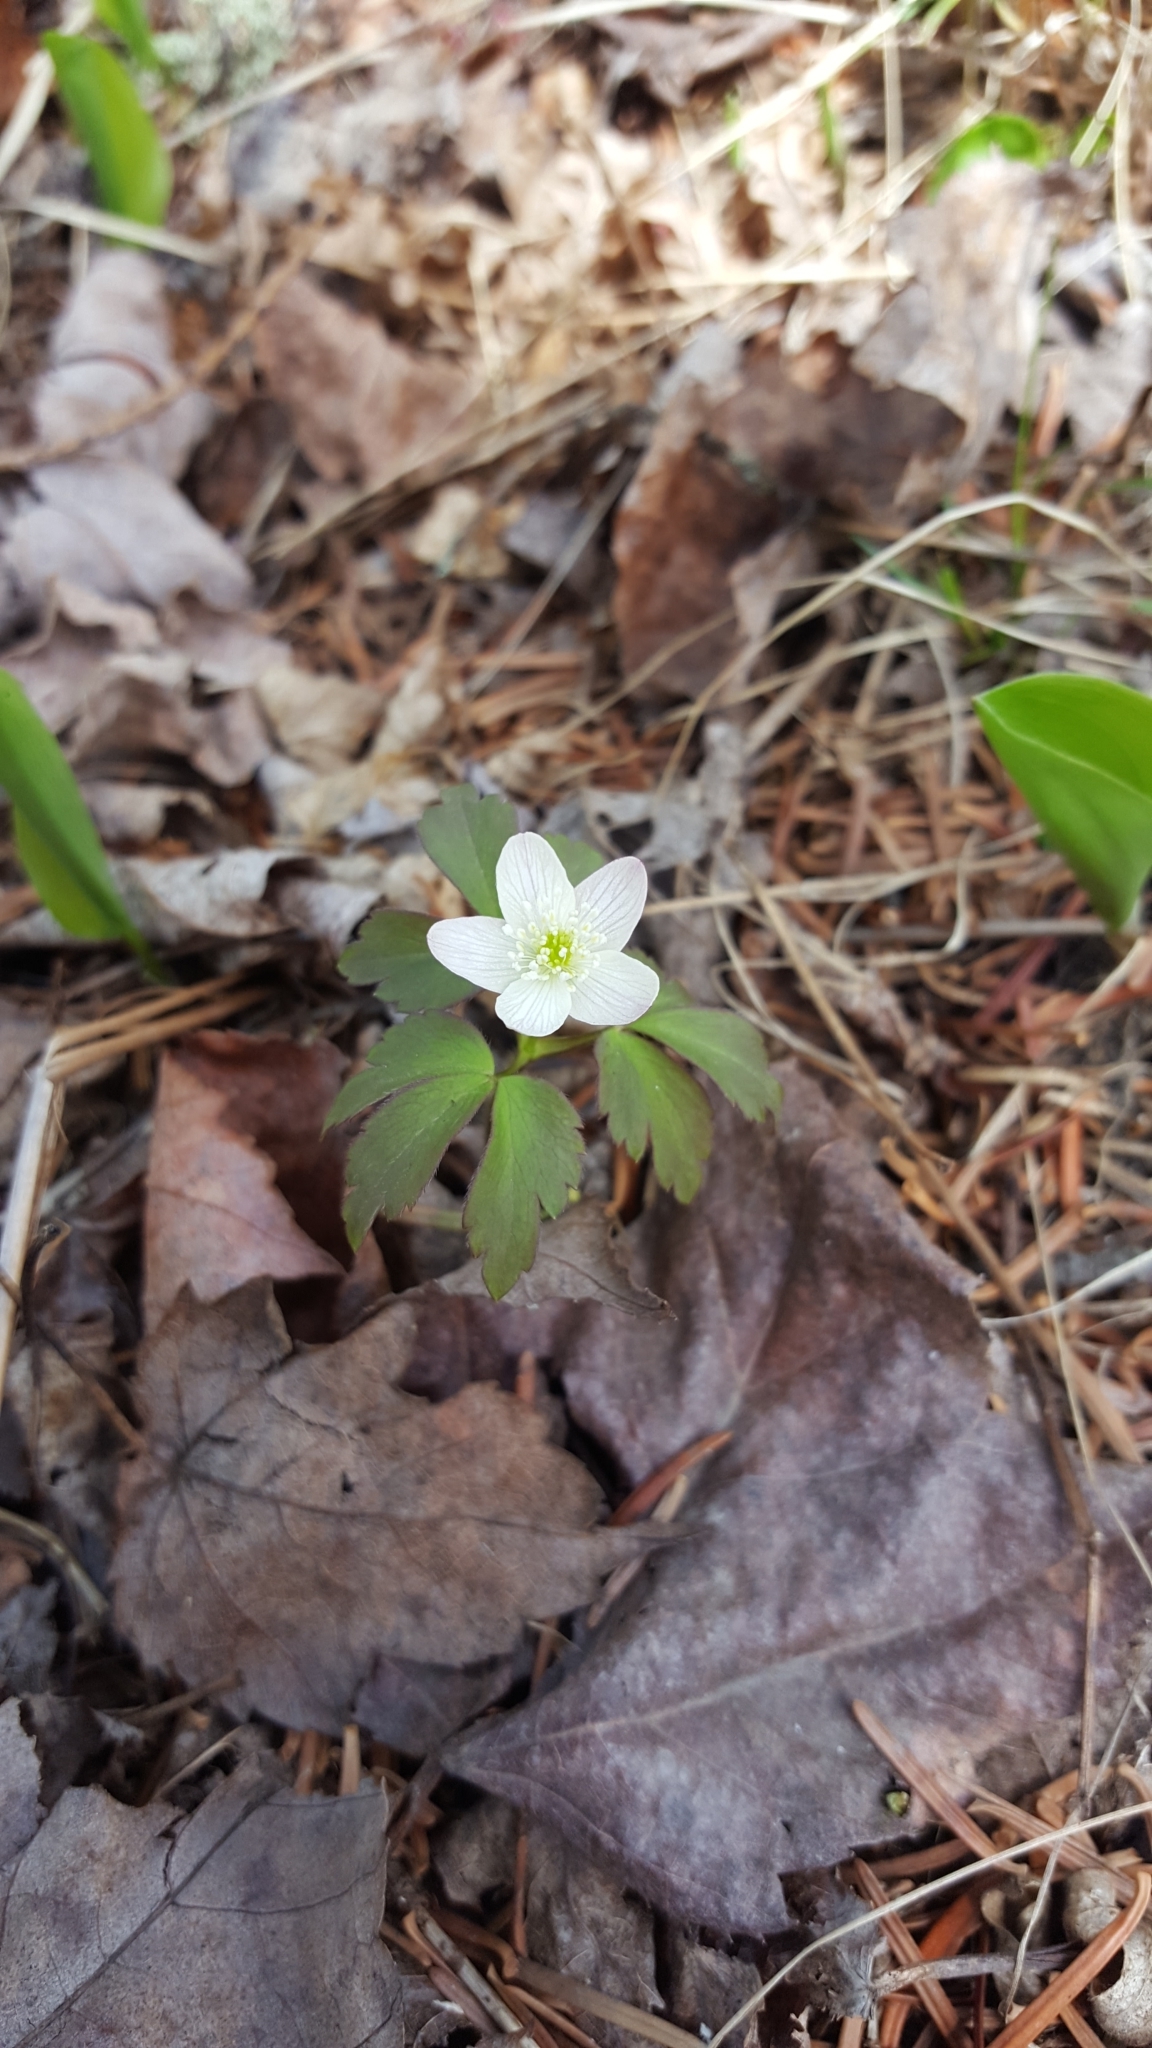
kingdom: Plantae
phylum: Tracheophyta
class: Magnoliopsida
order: Ranunculales
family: Ranunculaceae
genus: Anemone
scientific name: Anemone quinquefolia
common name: Wood anemone
